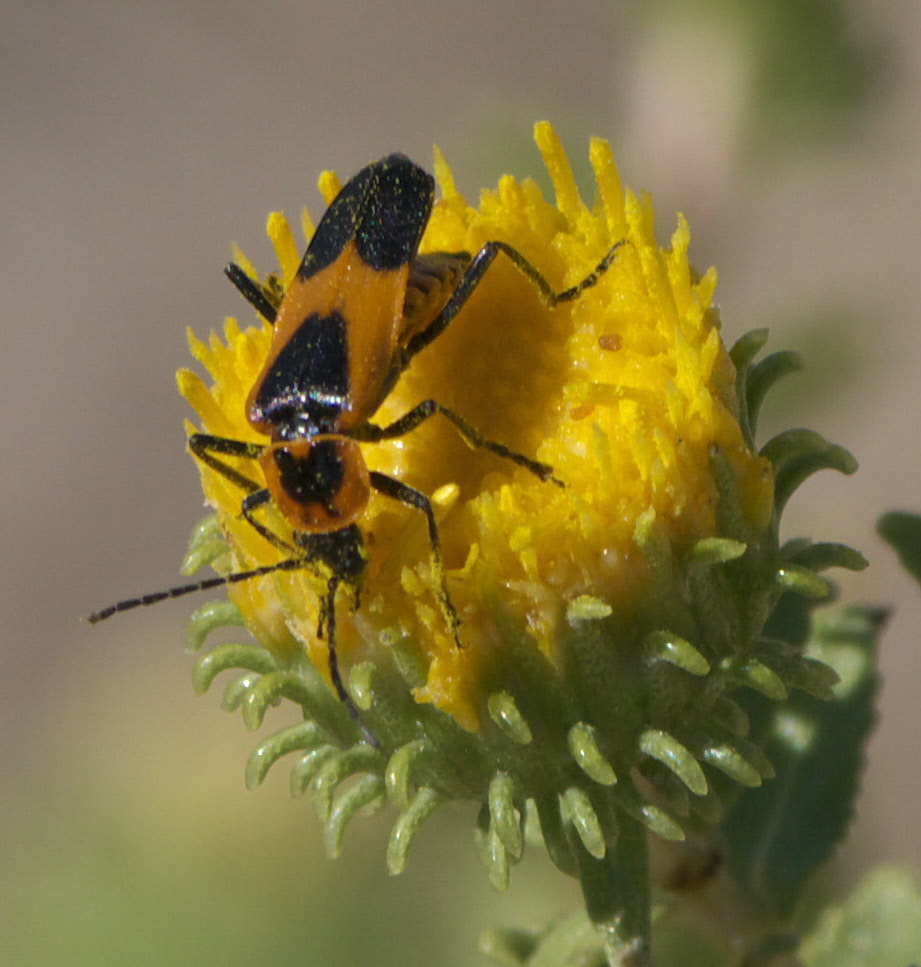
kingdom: Animalia
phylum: Arthropoda
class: Insecta
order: Coleoptera
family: Cantharidae
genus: Chauliognathus
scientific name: Chauliognathus basalis
